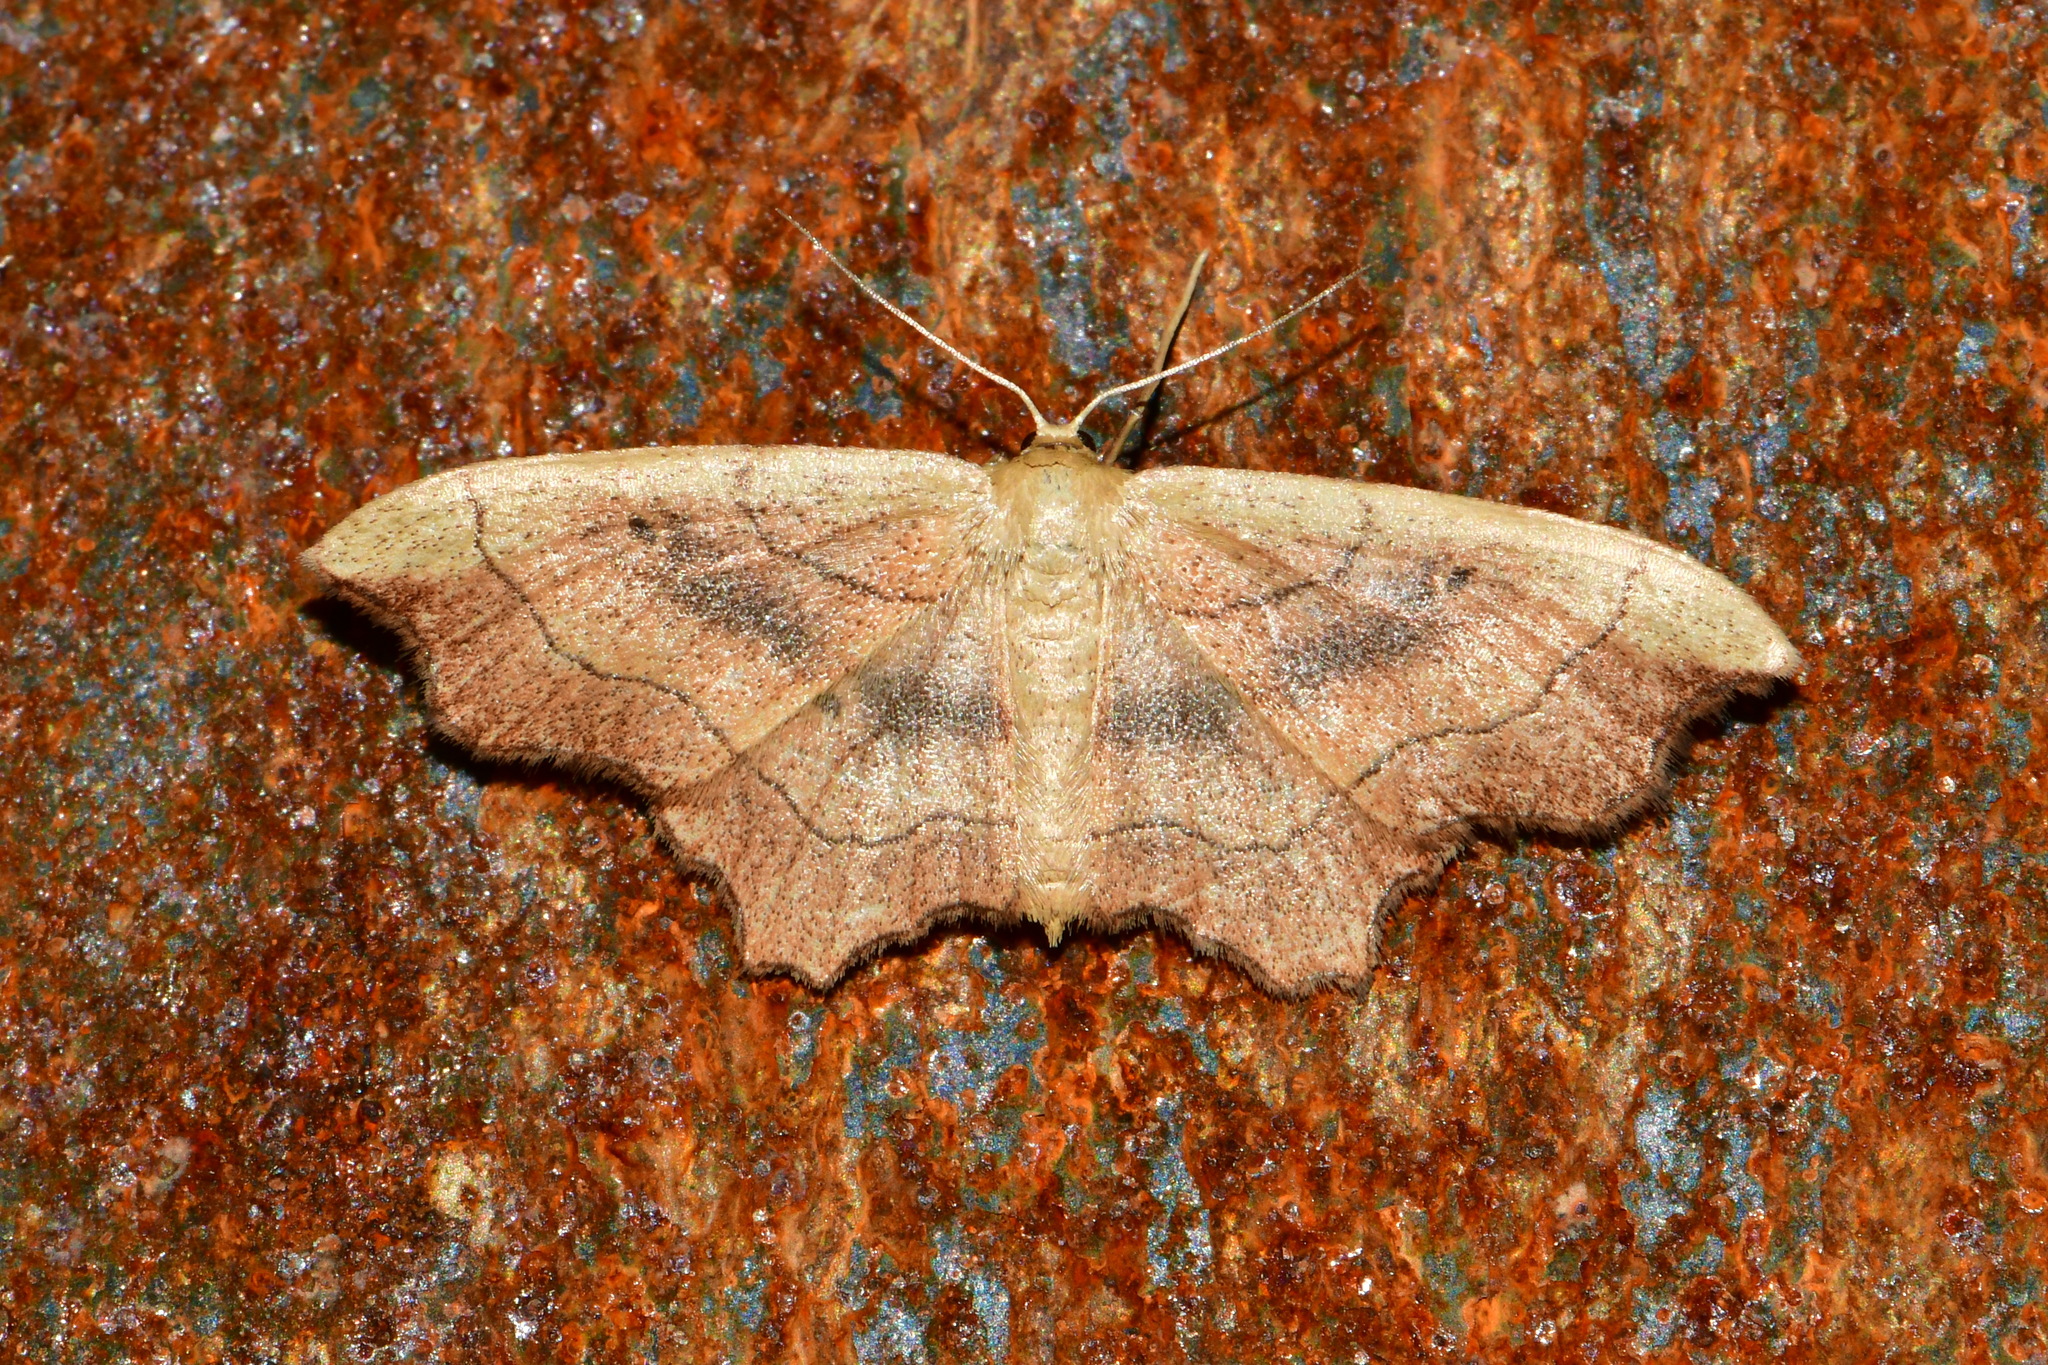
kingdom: Animalia
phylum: Arthropoda
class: Insecta
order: Lepidoptera
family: Geometridae
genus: Idaea
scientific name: Idaea emarginata
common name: Small scallop
